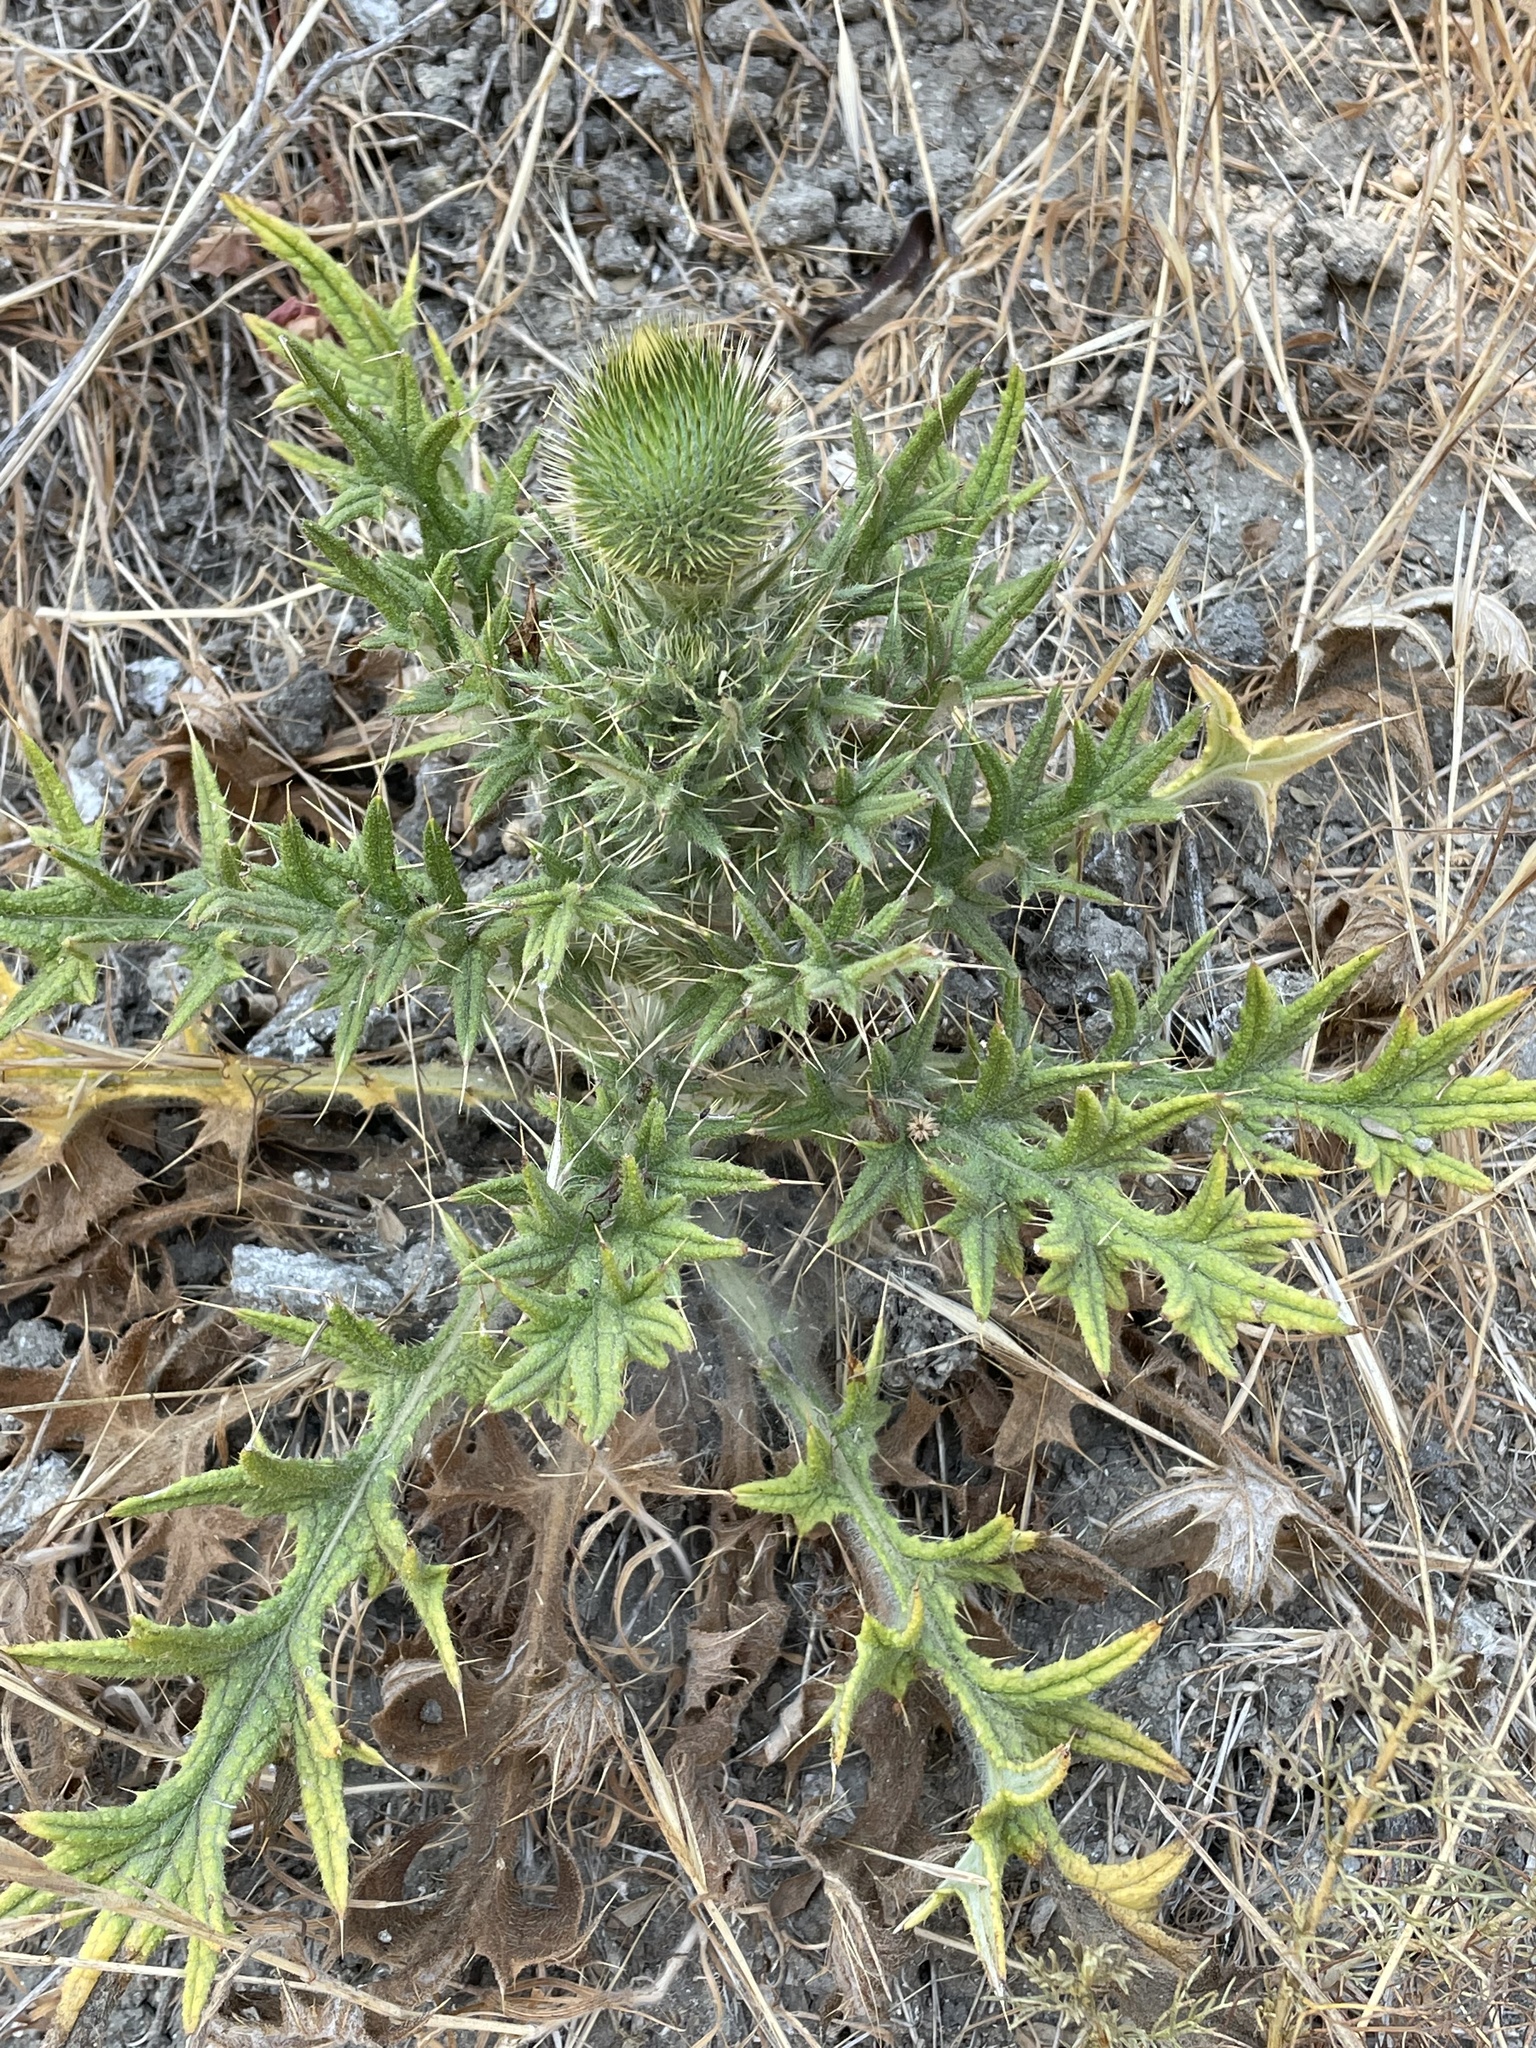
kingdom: Plantae
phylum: Tracheophyta
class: Magnoliopsida
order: Asterales
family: Asteraceae
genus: Cirsium
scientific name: Cirsium vulgare
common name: Bull thistle
